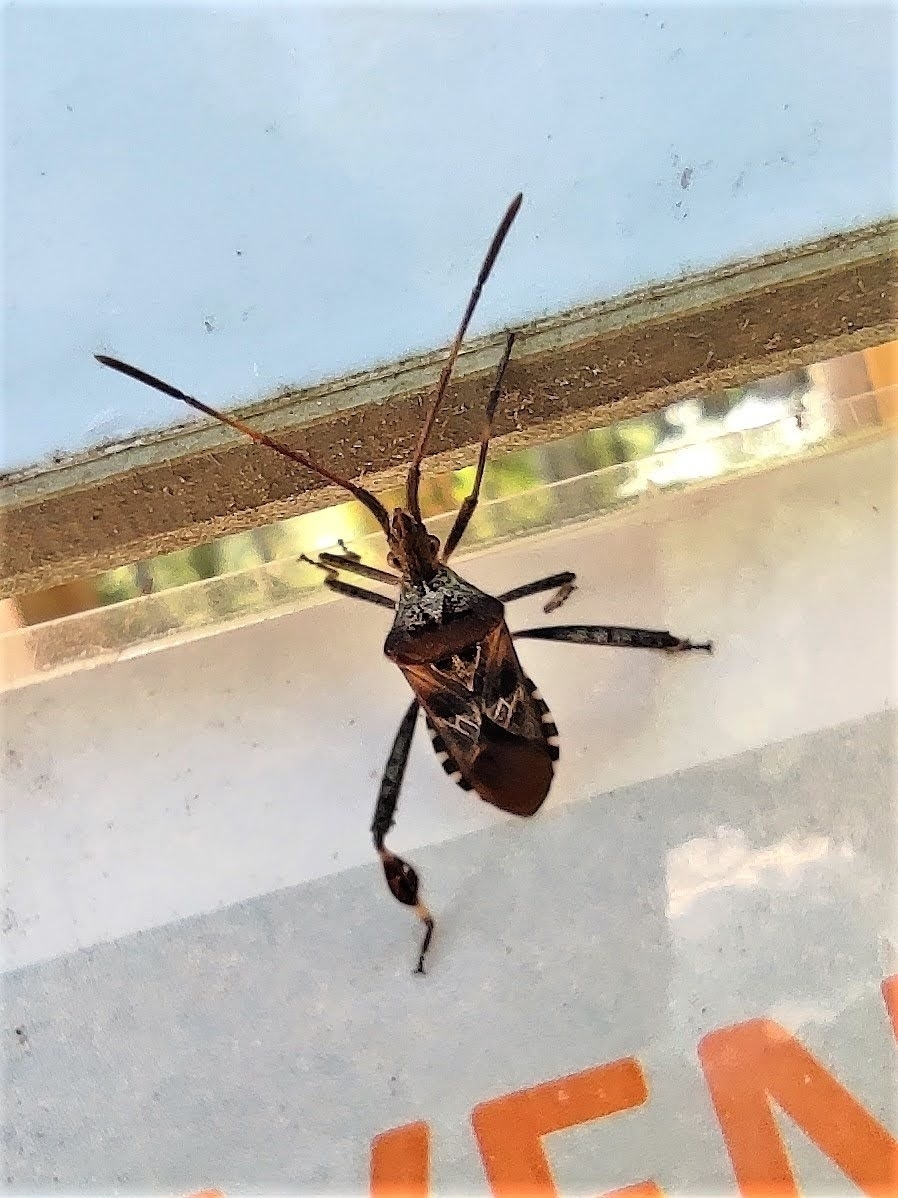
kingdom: Animalia
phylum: Arthropoda
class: Insecta
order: Hemiptera
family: Coreidae
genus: Leptoglossus
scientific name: Leptoglossus occidentalis
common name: Western conifer-seed bug
